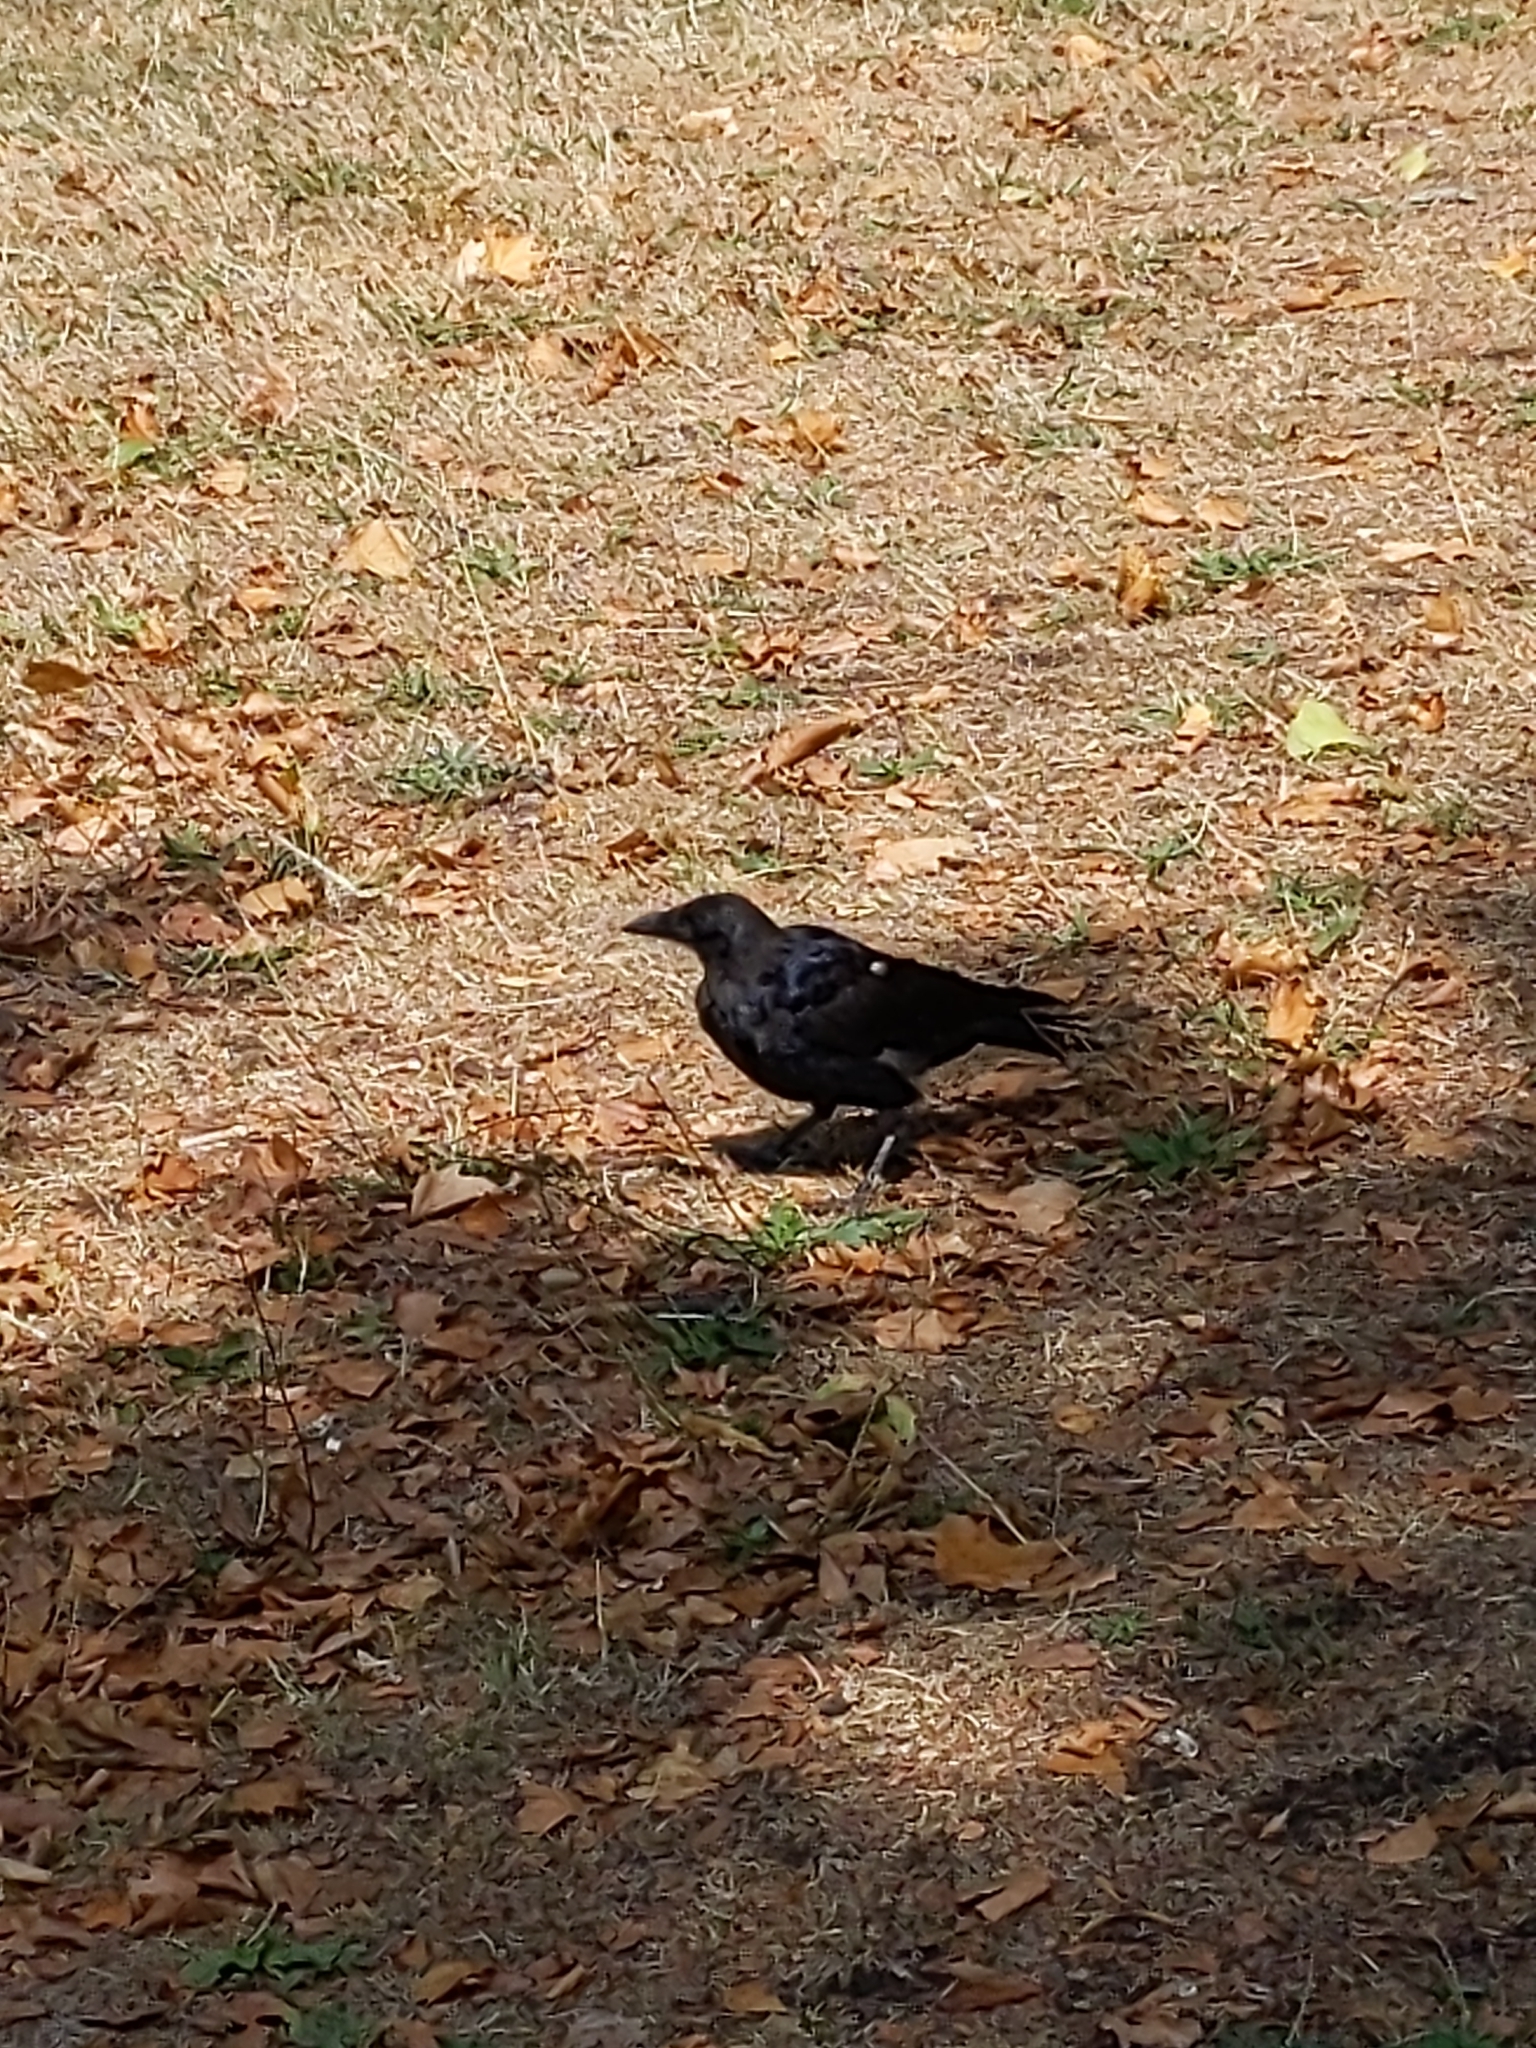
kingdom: Animalia
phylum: Chordata
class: Aves
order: Passeriformes
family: Corvidae
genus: Corvus
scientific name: Corvus corone
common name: Carrion crow
